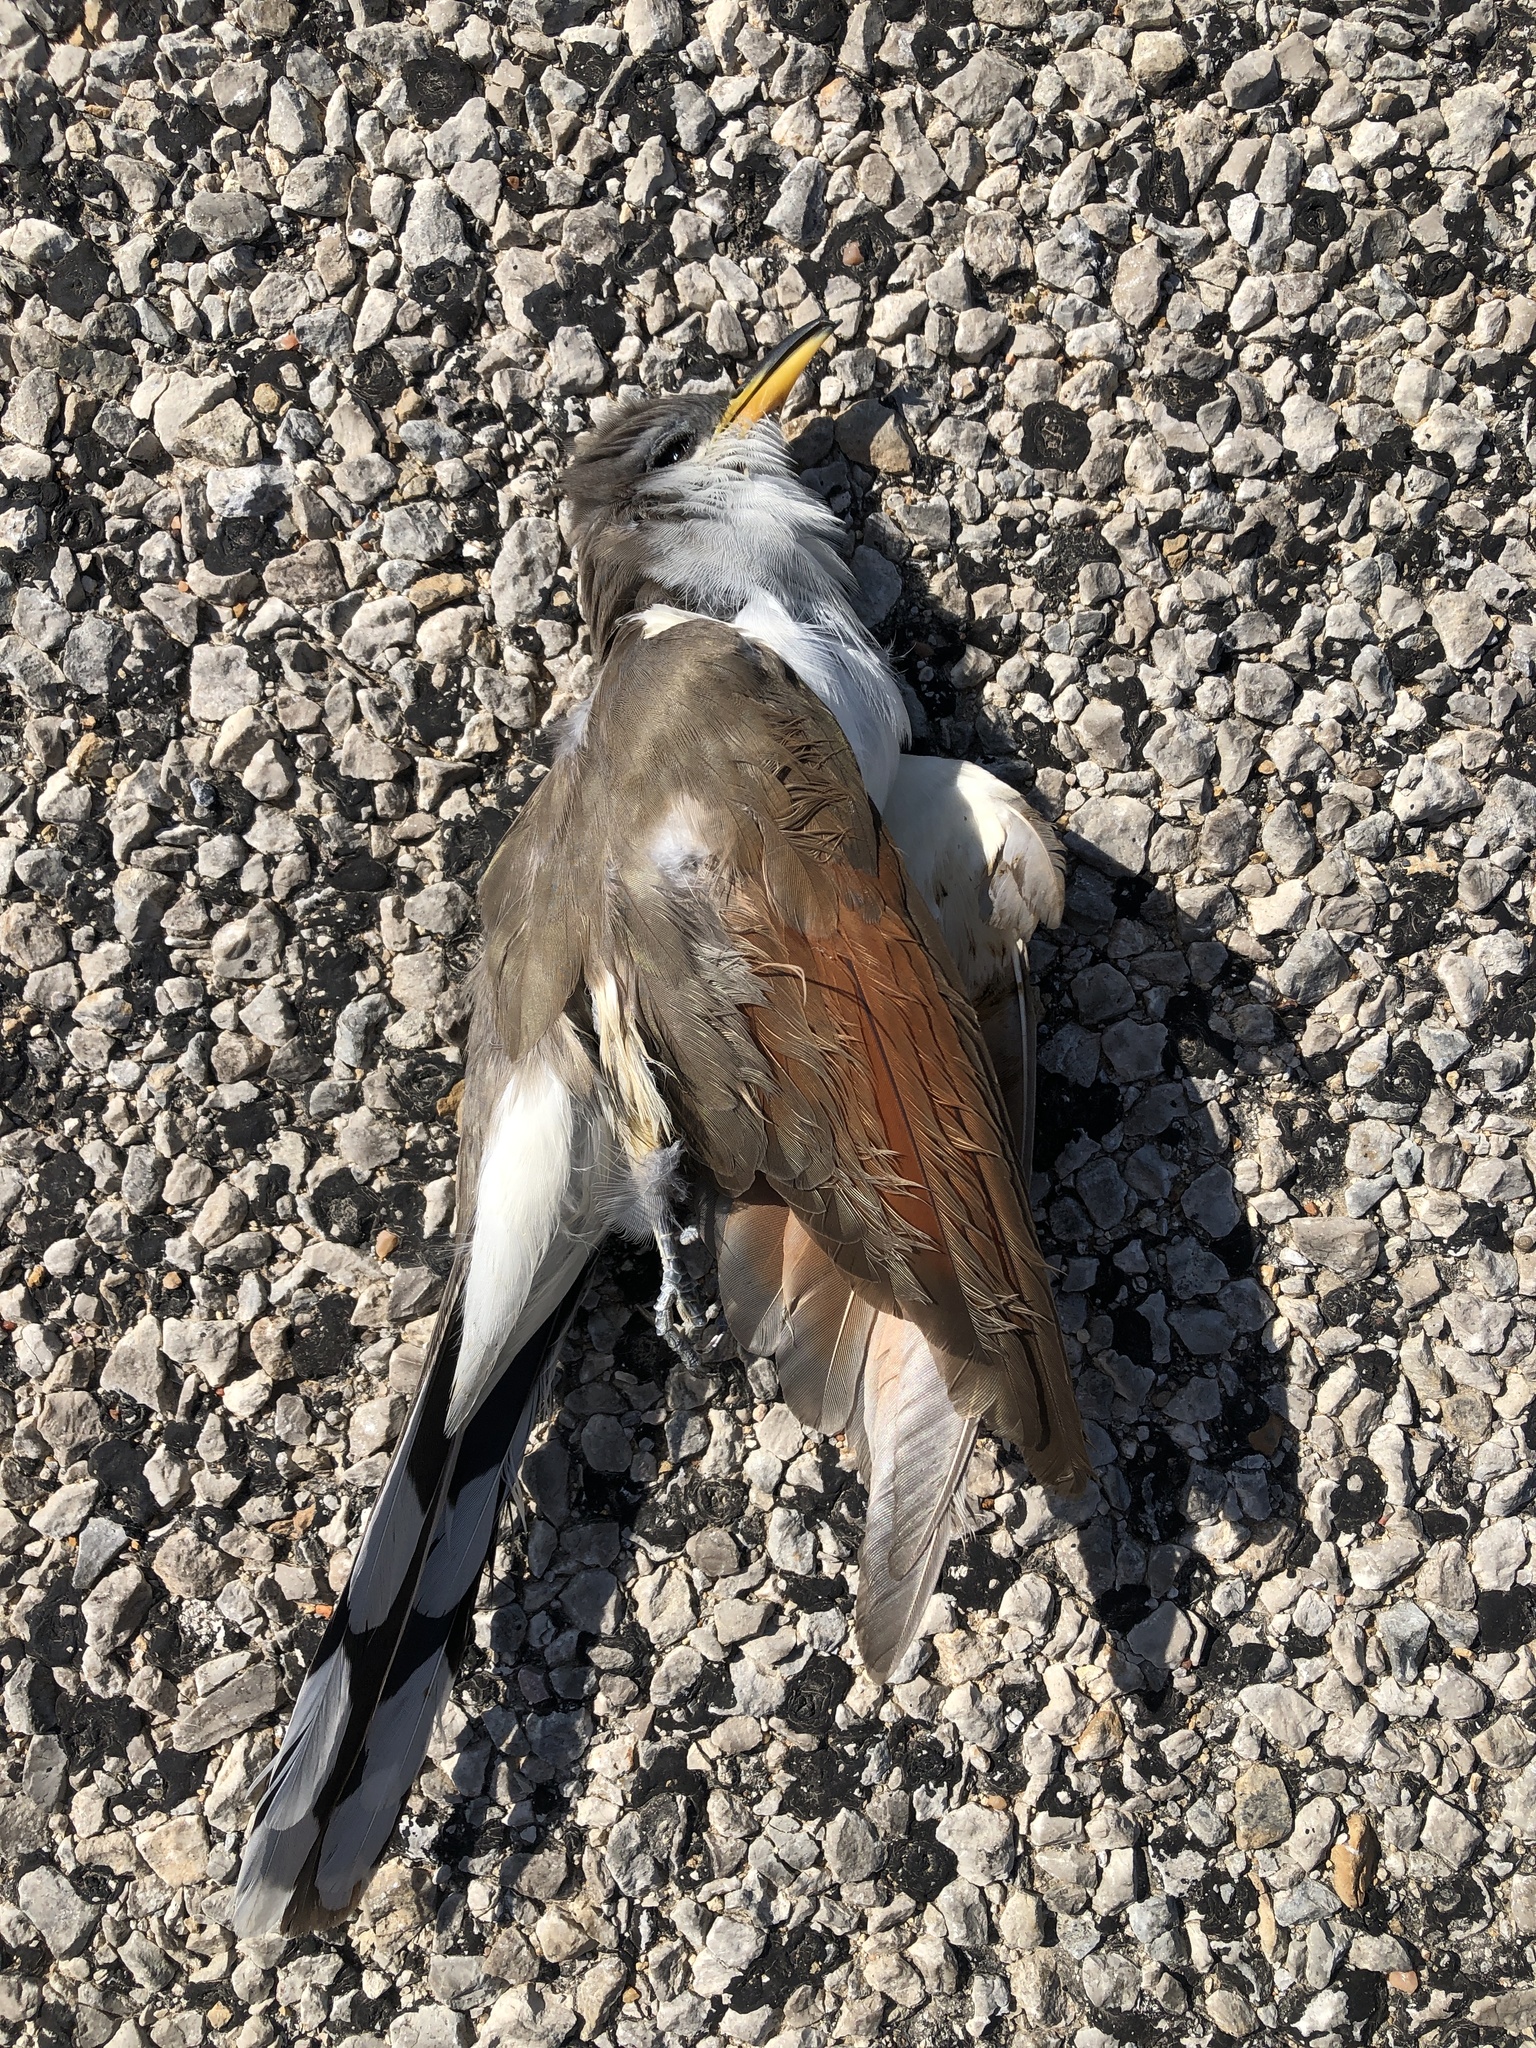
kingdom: Animalia
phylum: Chordata
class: Aves
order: Cuculiformes
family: Cuculidae
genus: Coccyzus
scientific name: Coccyzus americanus
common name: Yellow-billed cuckoo
